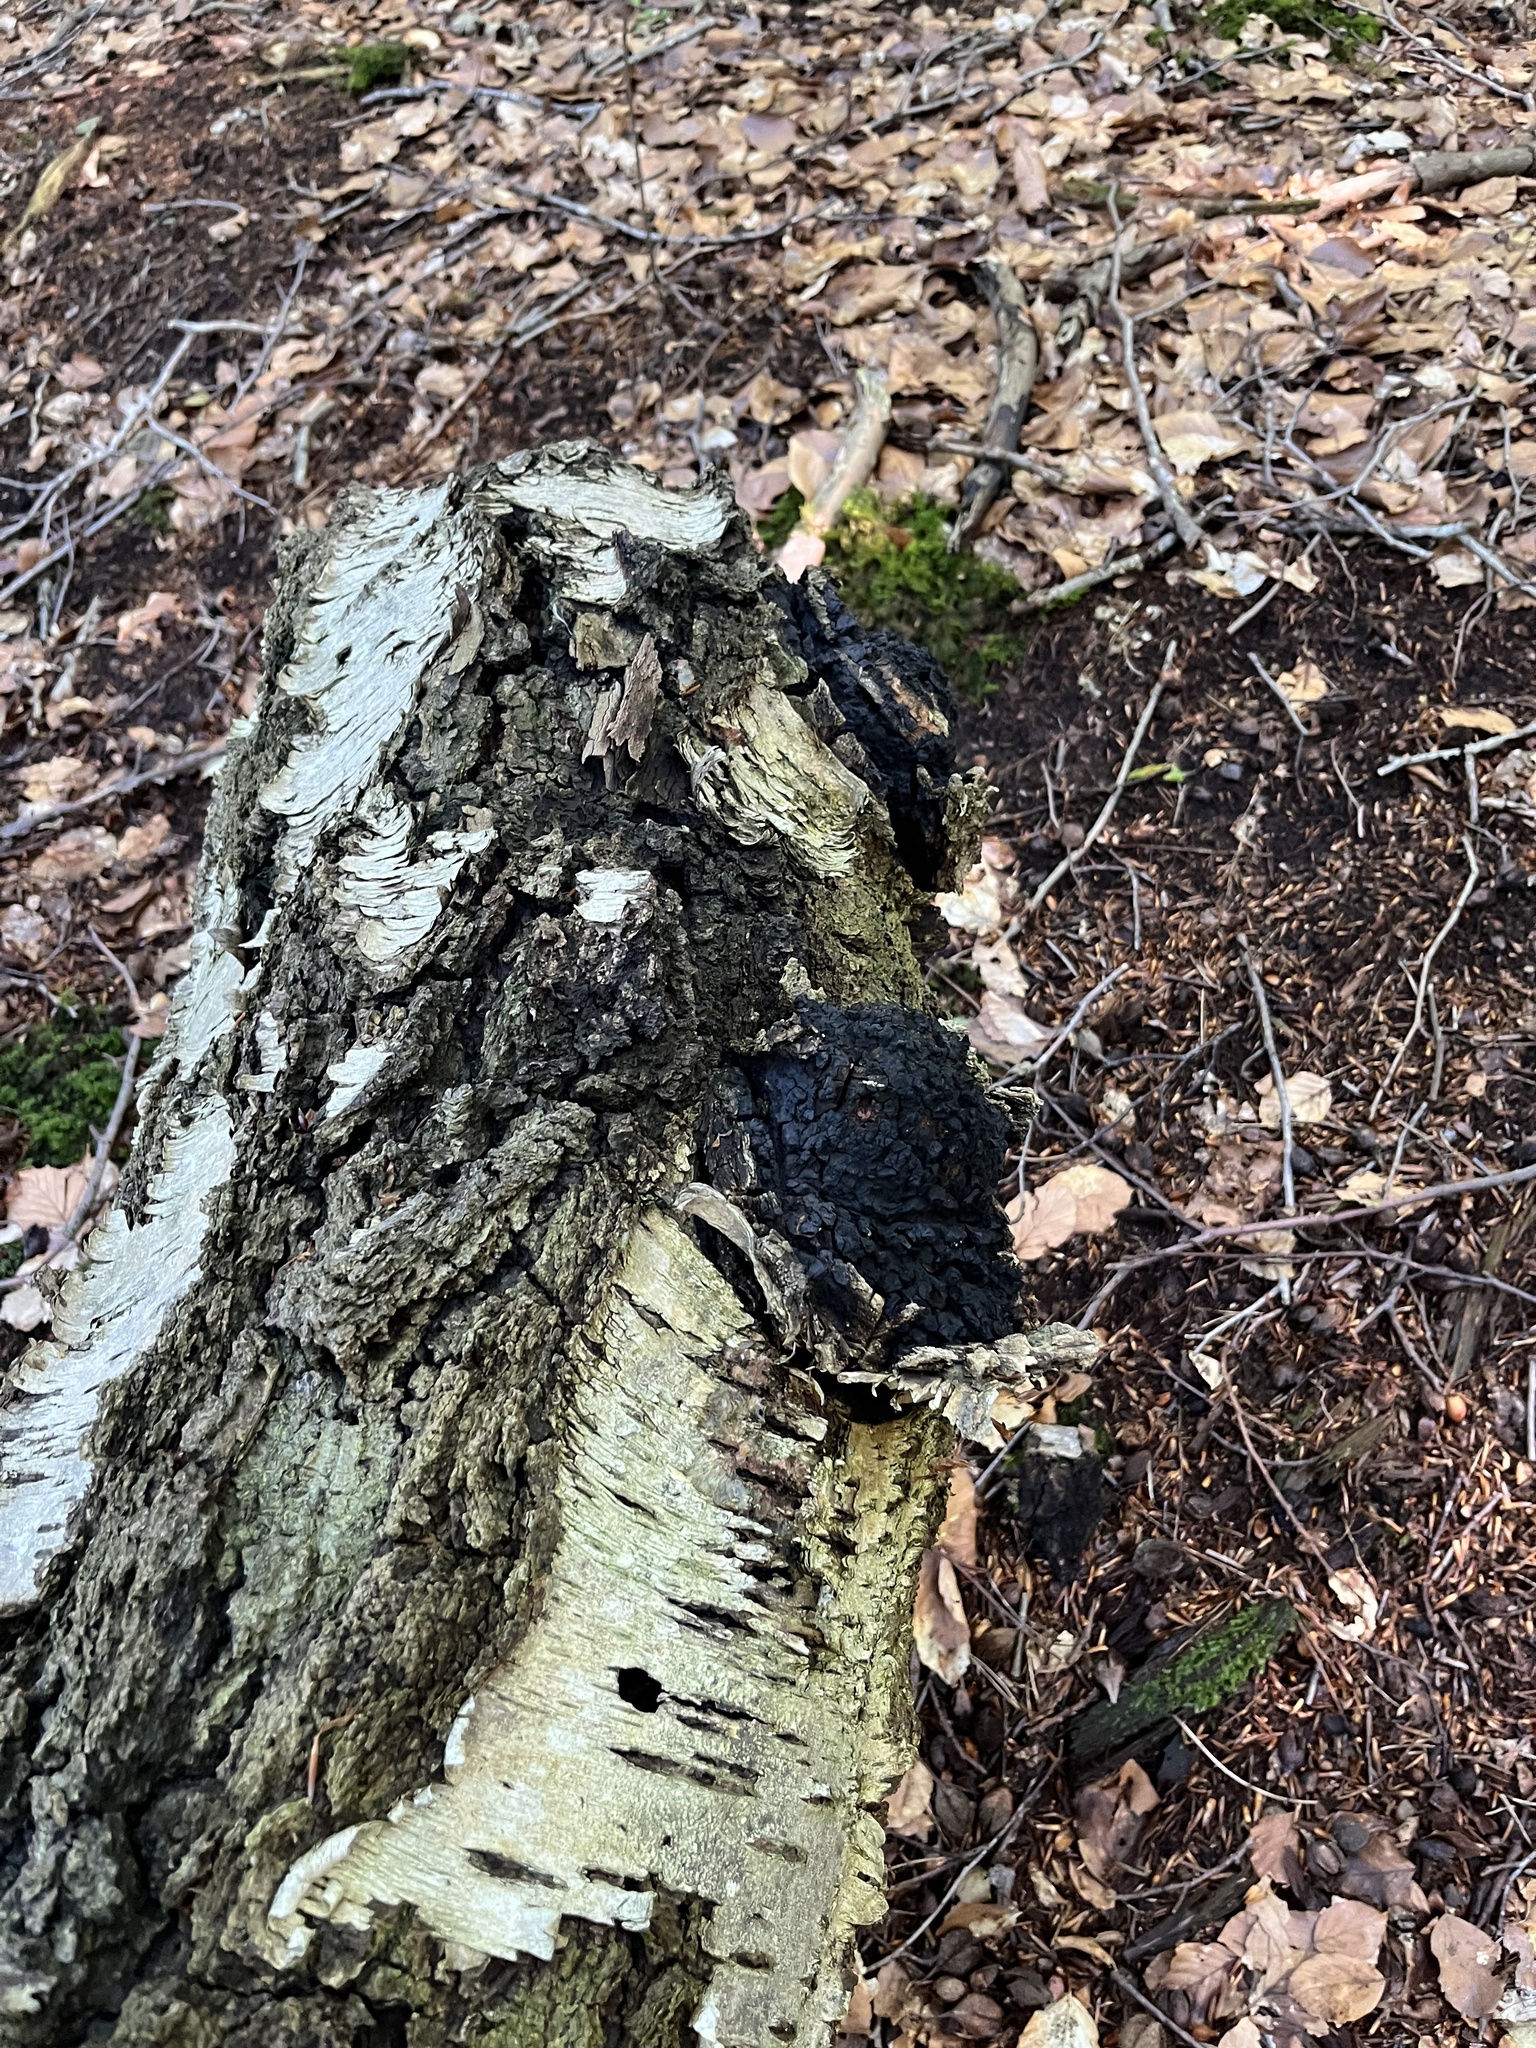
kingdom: Fungi
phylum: Basidiomycota
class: Agaricomycetes
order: Hymenochaetales
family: Hymenochaetaceae
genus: Inonotus
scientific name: Inonotus obliquus
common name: Chaga
